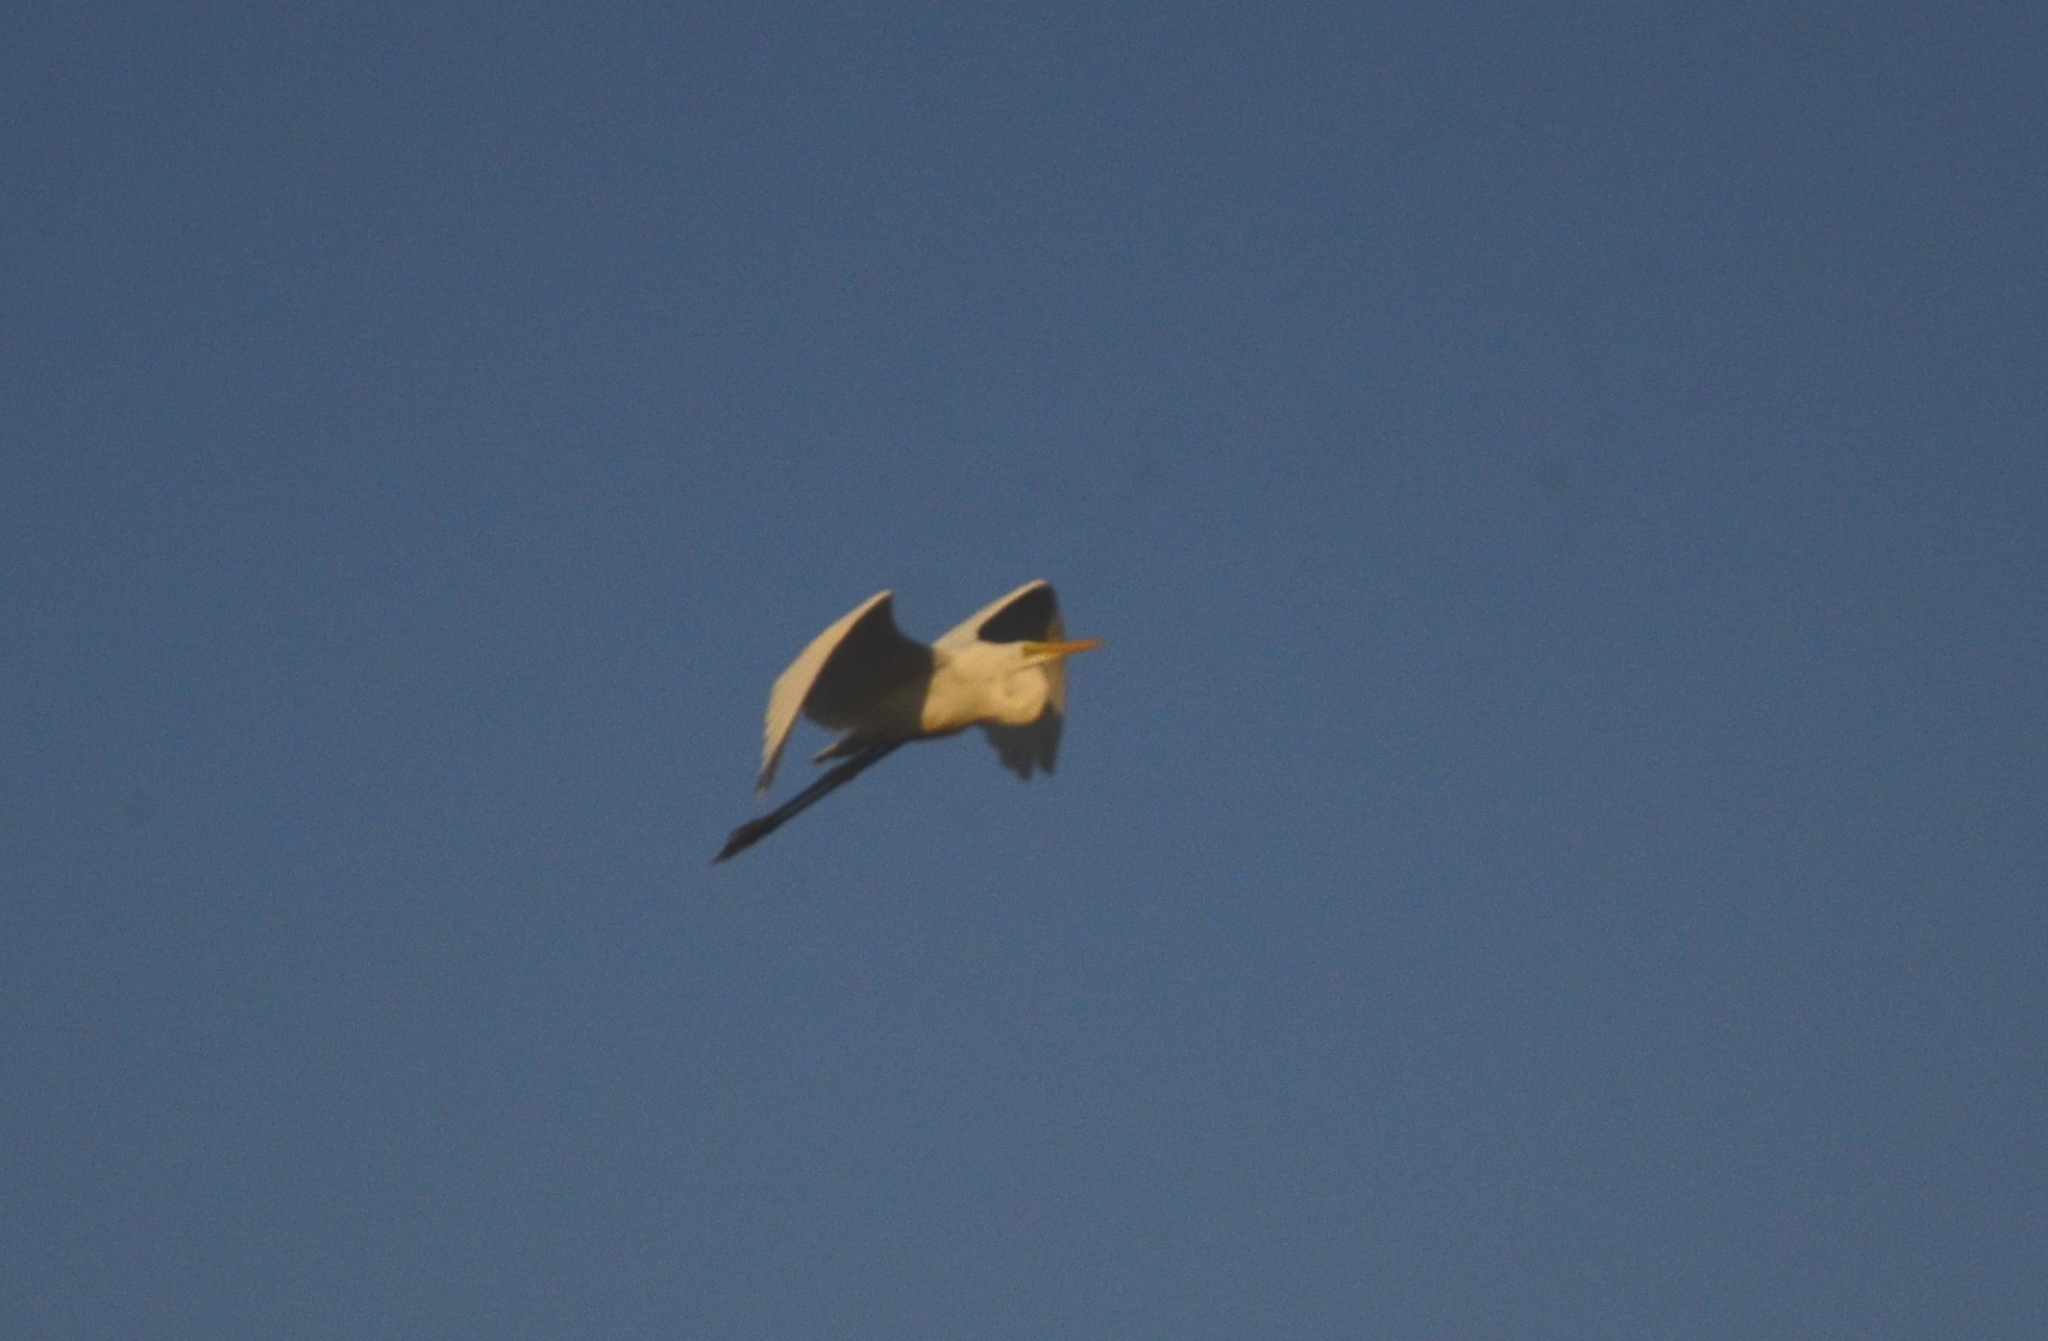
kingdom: Animalia
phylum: Chordata
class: Aves
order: Pelecaniformes
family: Ardeidae
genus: Ardea
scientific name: Ardea alba
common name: Great egret
